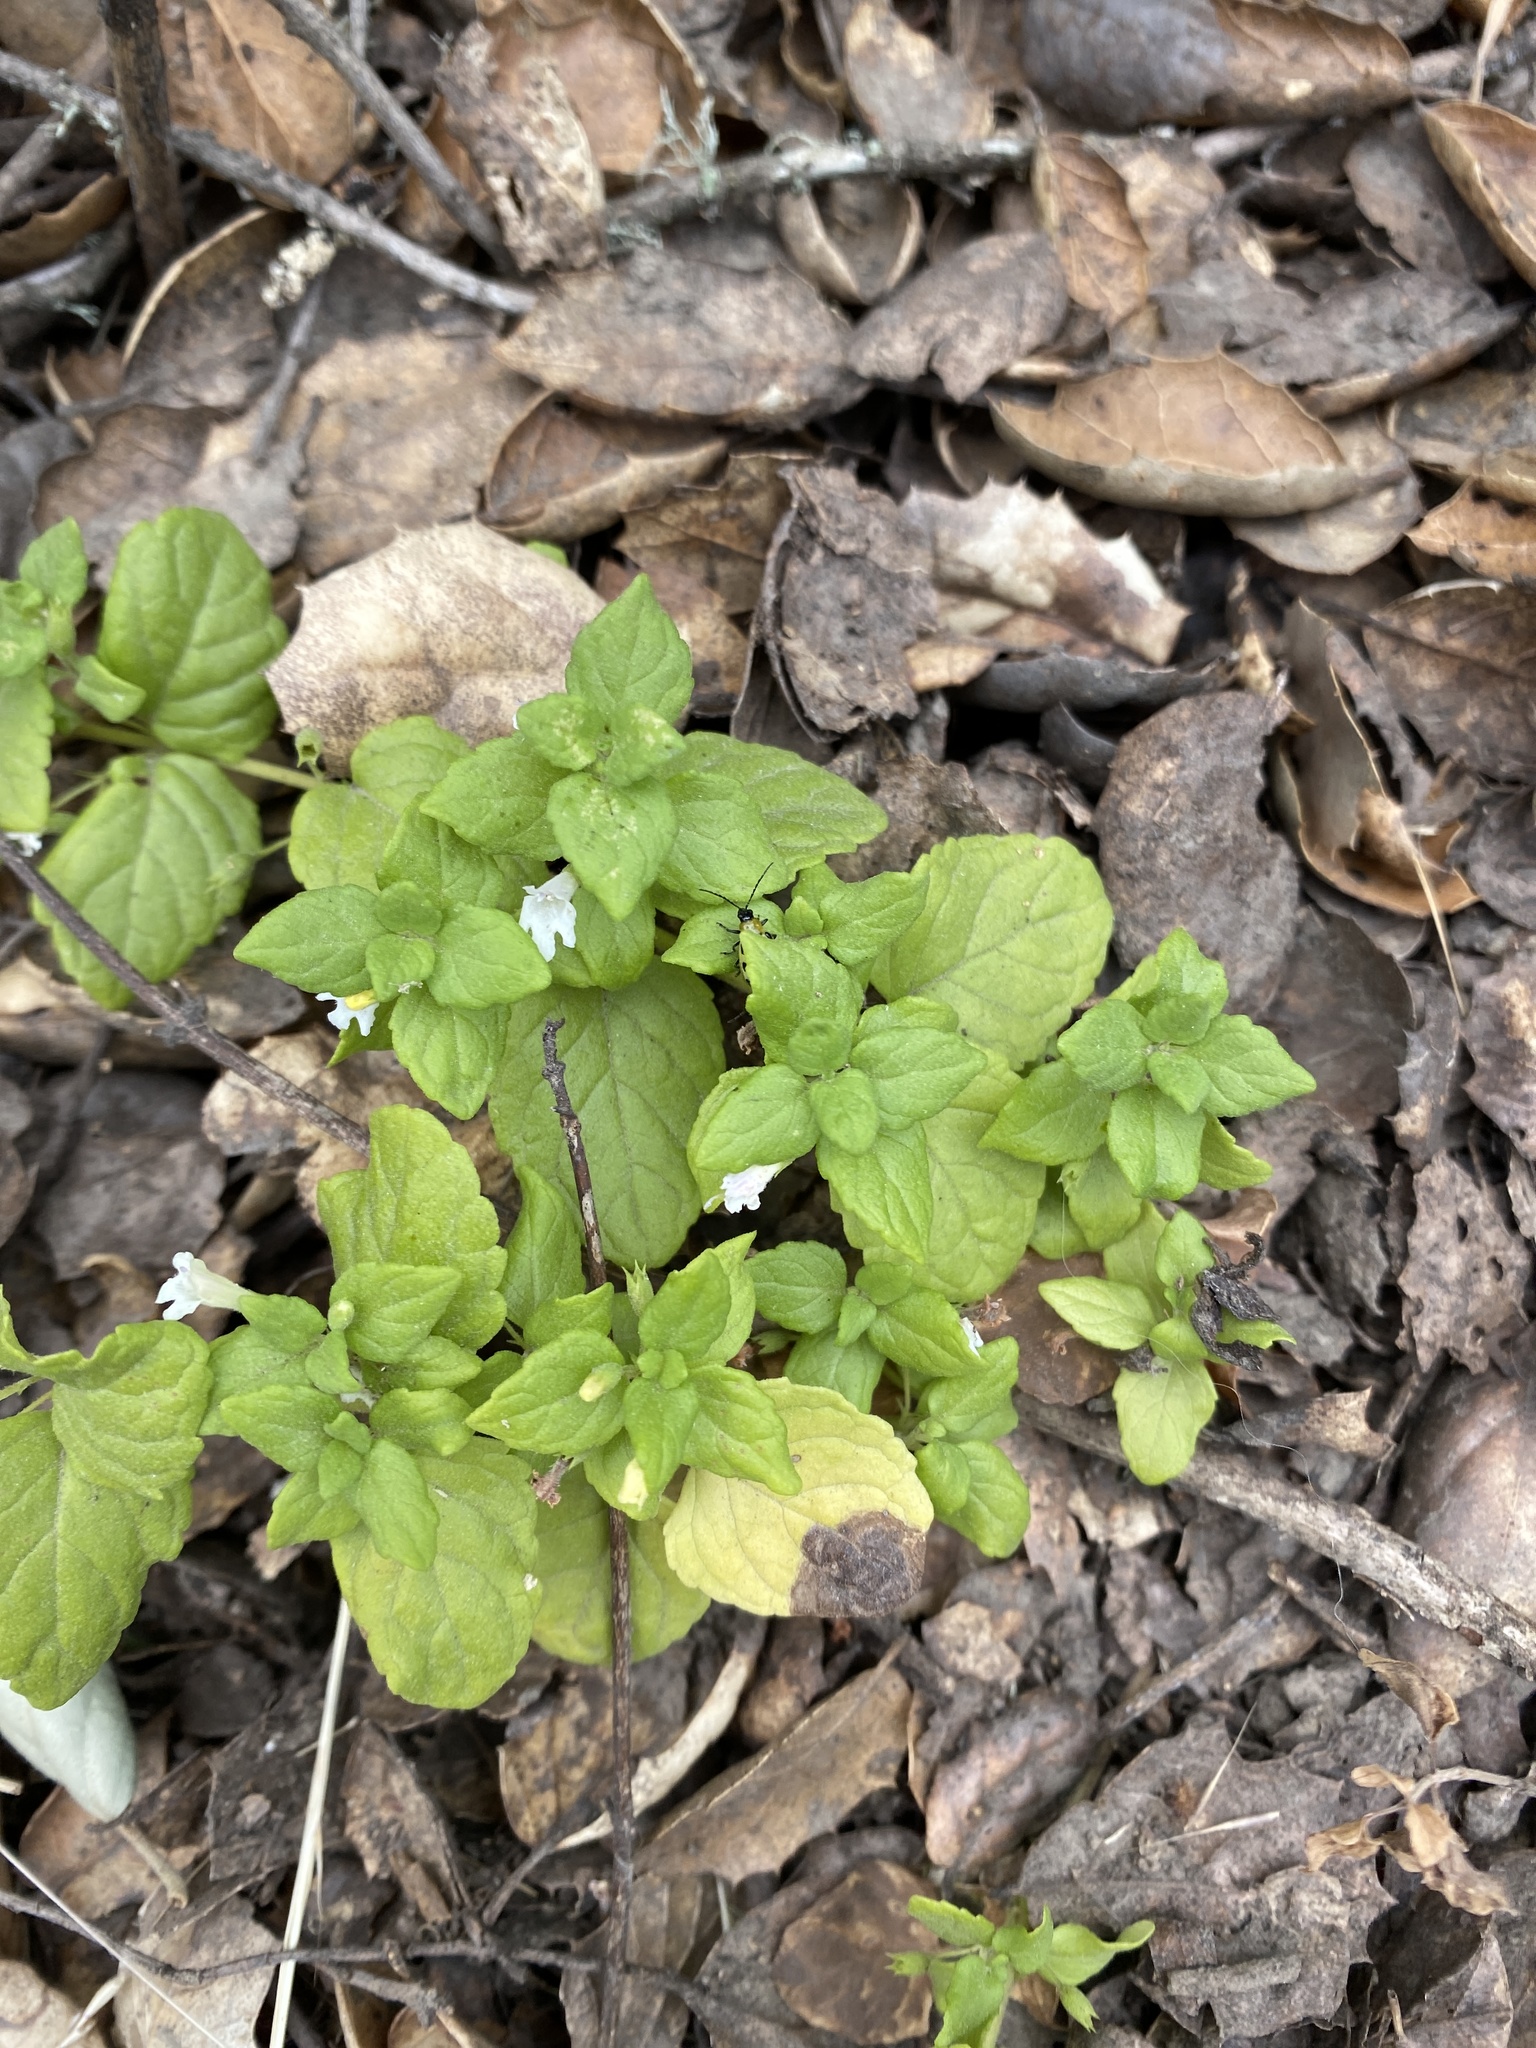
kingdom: Plantae
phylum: Tracheophyta
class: Magnoliopsida
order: Lamiales
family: Lamiaceae
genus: Micromeria
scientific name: Micromeria douglasii
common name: Yerba buena
